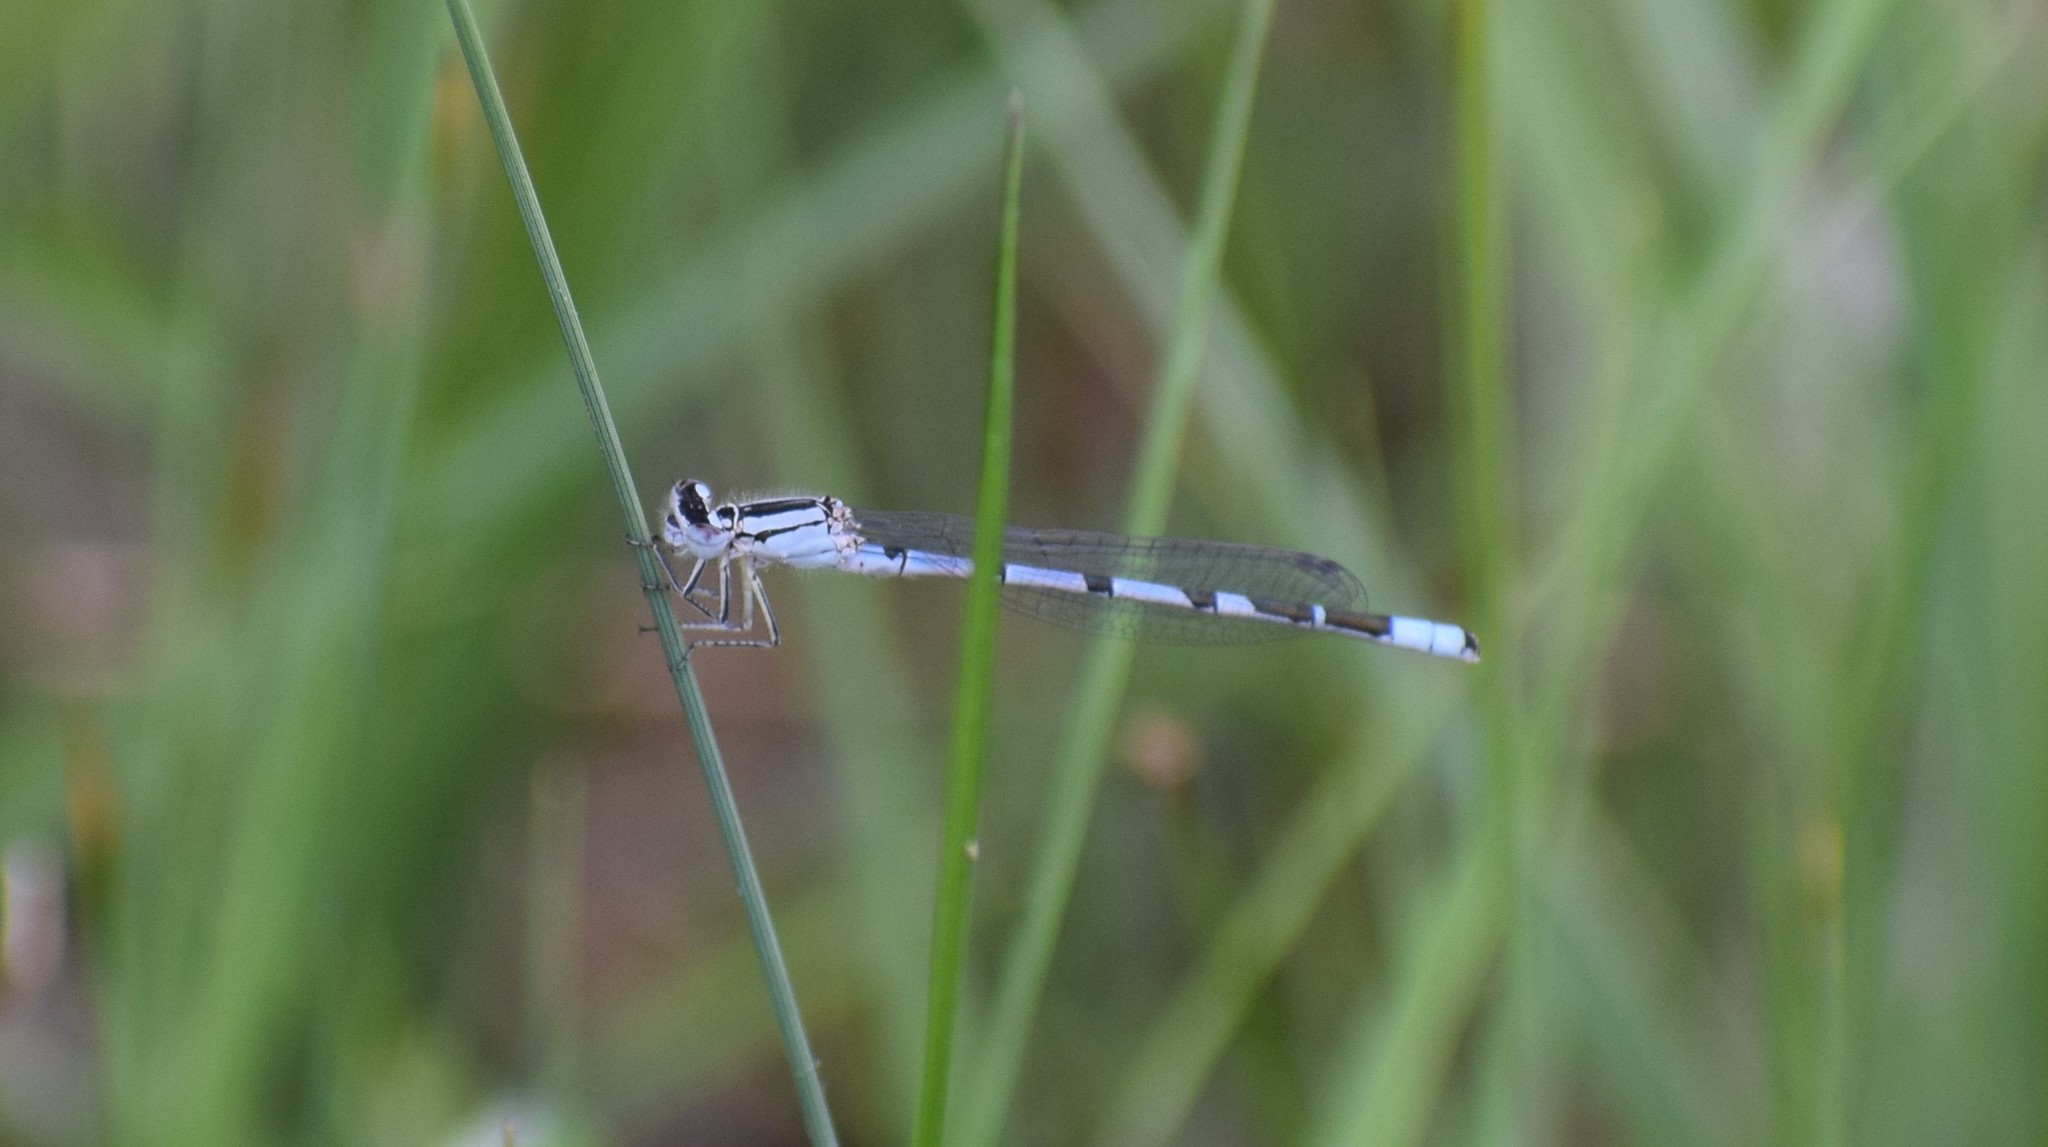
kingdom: Animalia
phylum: Arthropoda
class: Insecta
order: Odonata
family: Coenagrionidae
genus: Enallagma
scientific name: Enallagma cyathigerum
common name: Common blue damselfly
